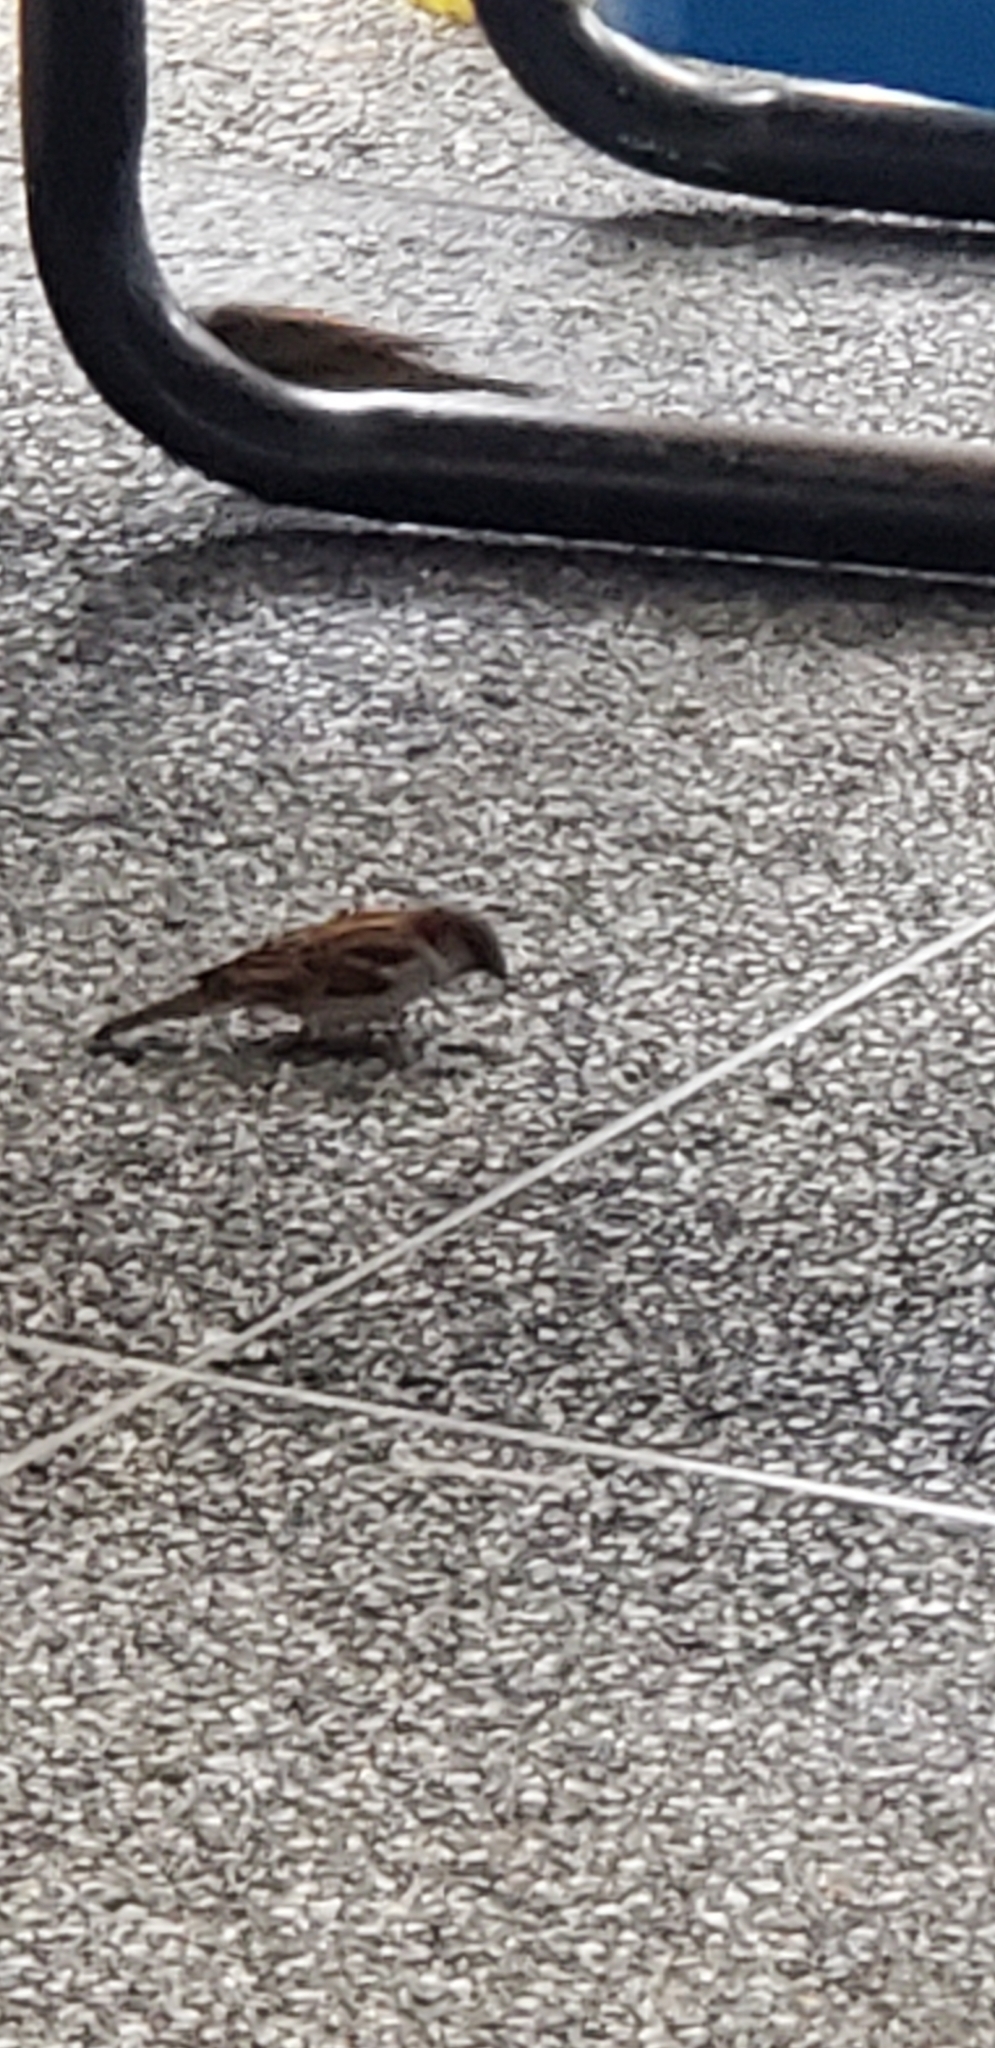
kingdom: Animalia
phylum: Chordata
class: Aves
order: Passeriformes
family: Passeridae
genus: Passer
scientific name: Passer domesticus
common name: House sparrow
